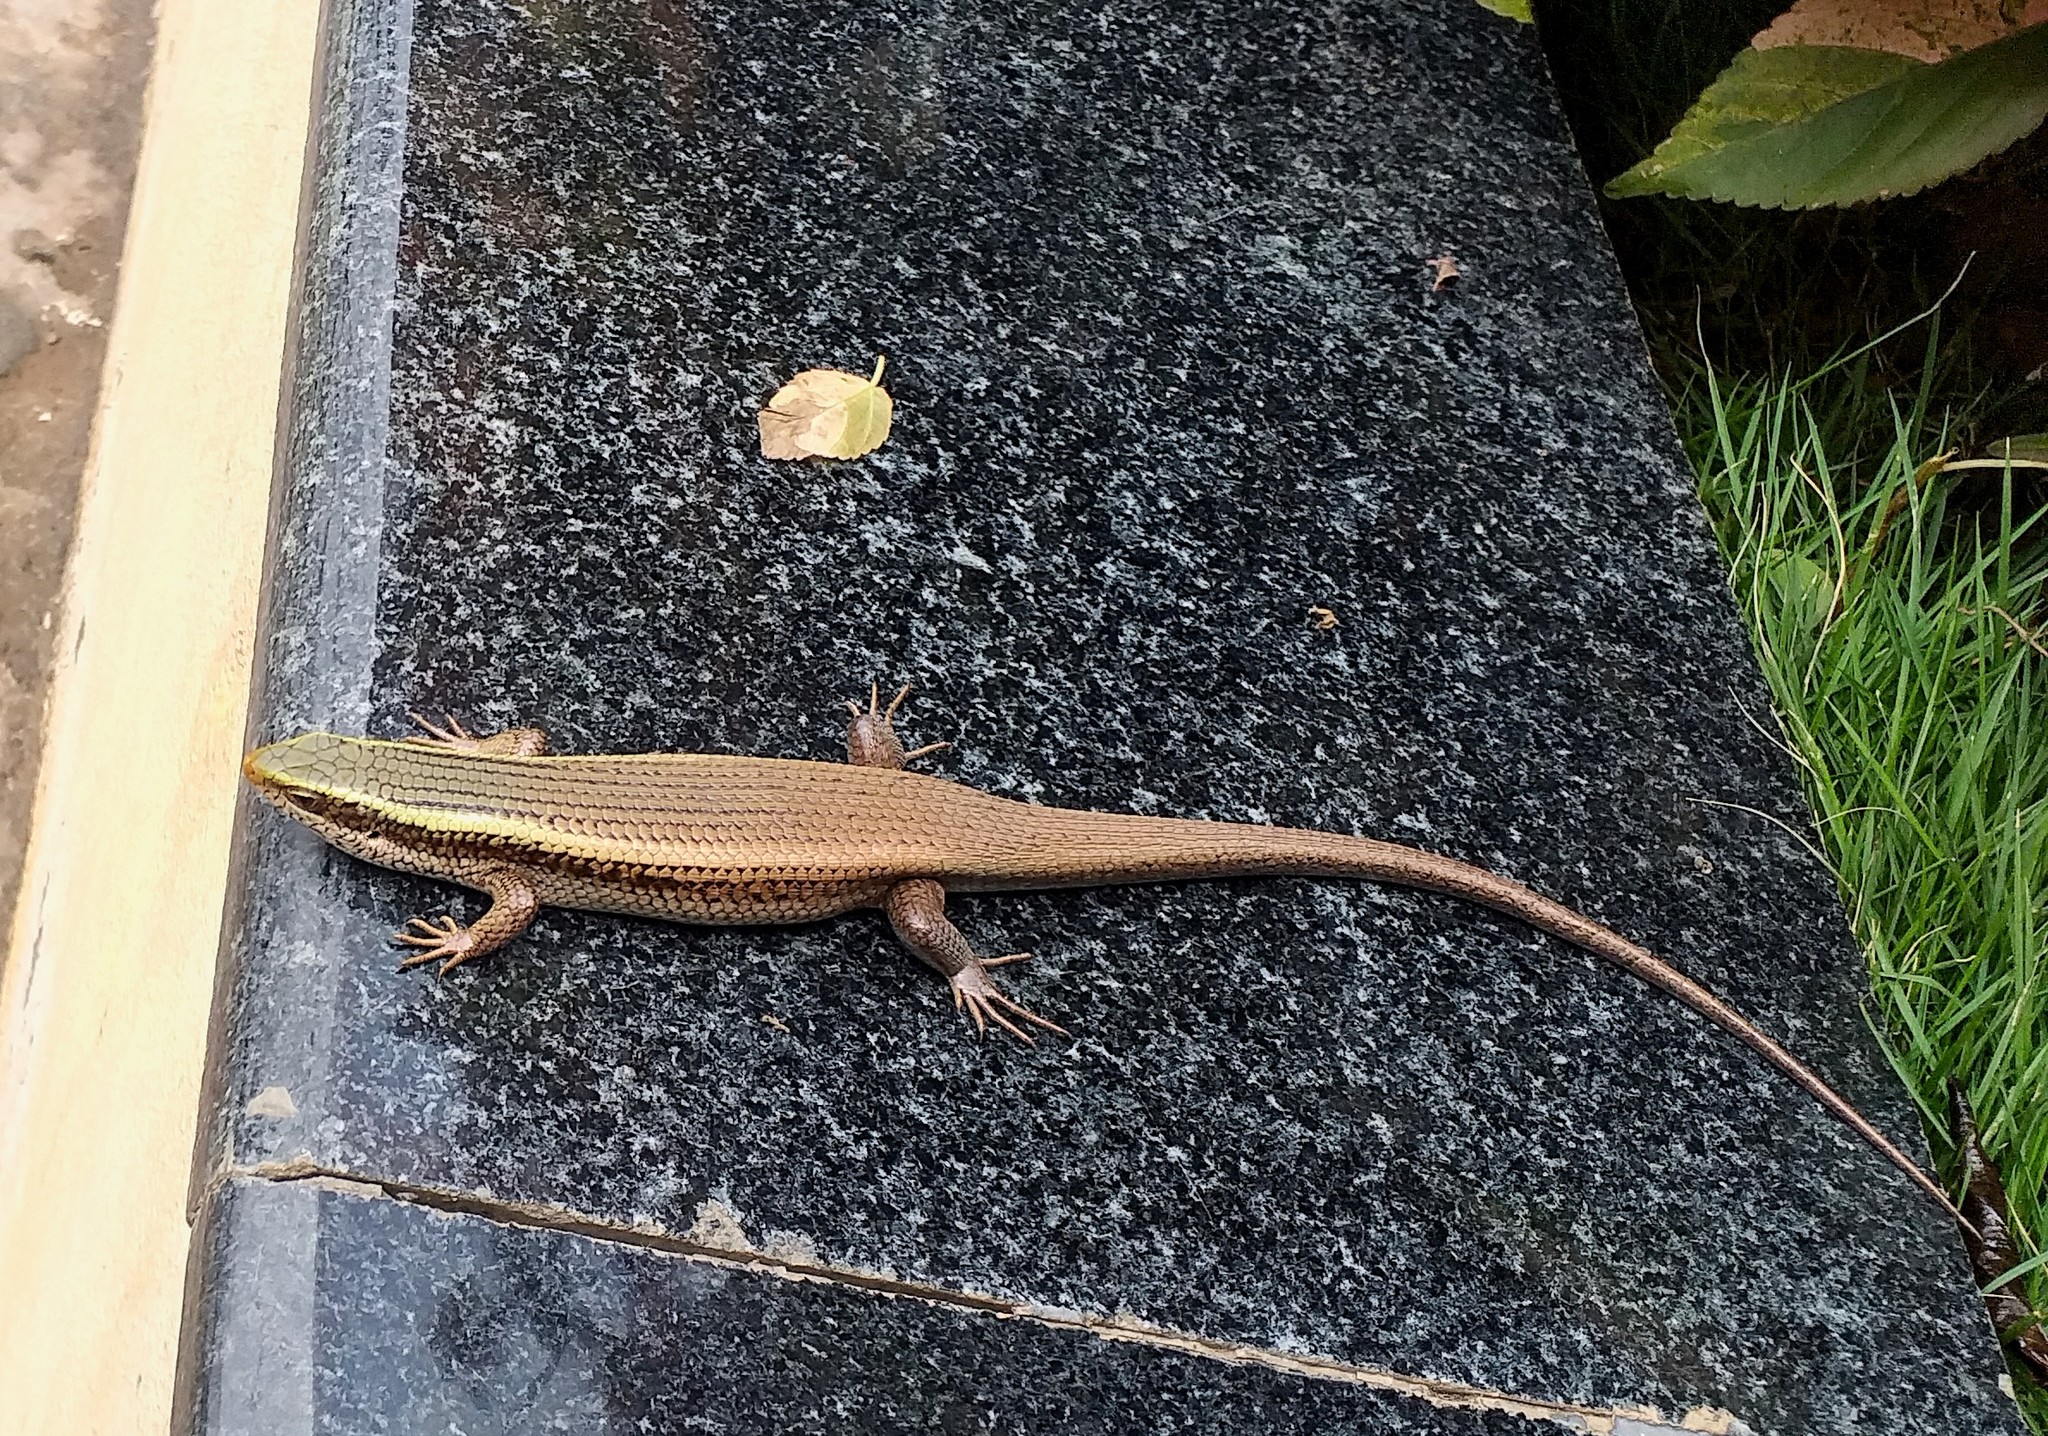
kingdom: Animalia
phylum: Chordata
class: Squamata
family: Scincidae
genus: Eutropis
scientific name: Eutropis carinata
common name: Keeled indian mabuya
